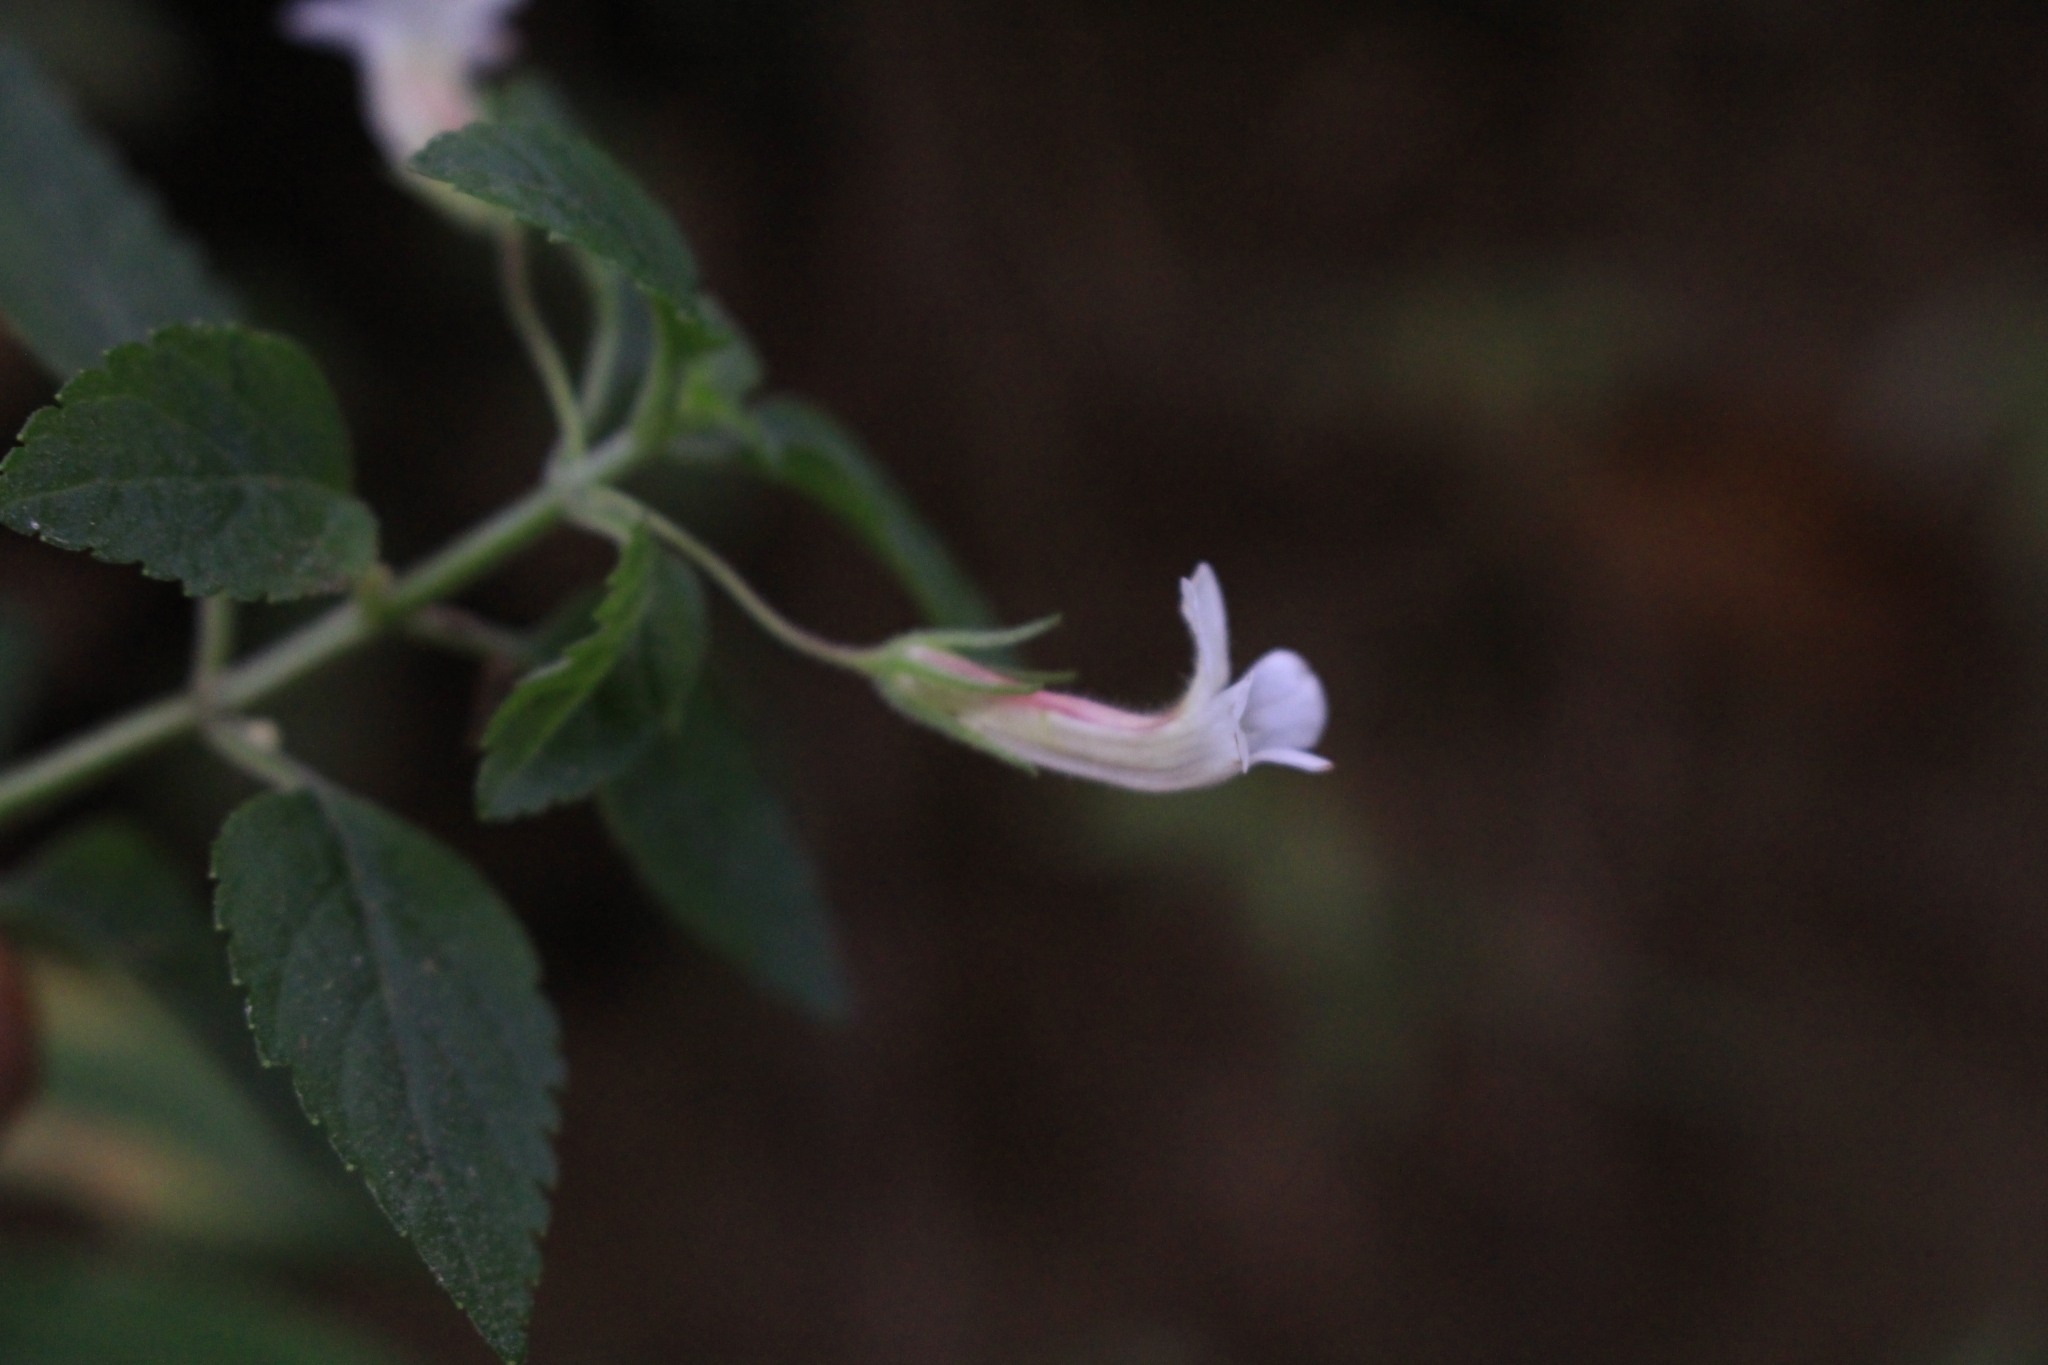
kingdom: Plantae
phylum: Tracheophyta
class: Magnoliopsida
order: Lamiales
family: Plantaginaceae
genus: Stemodia
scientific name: Stemodia peduncularis
